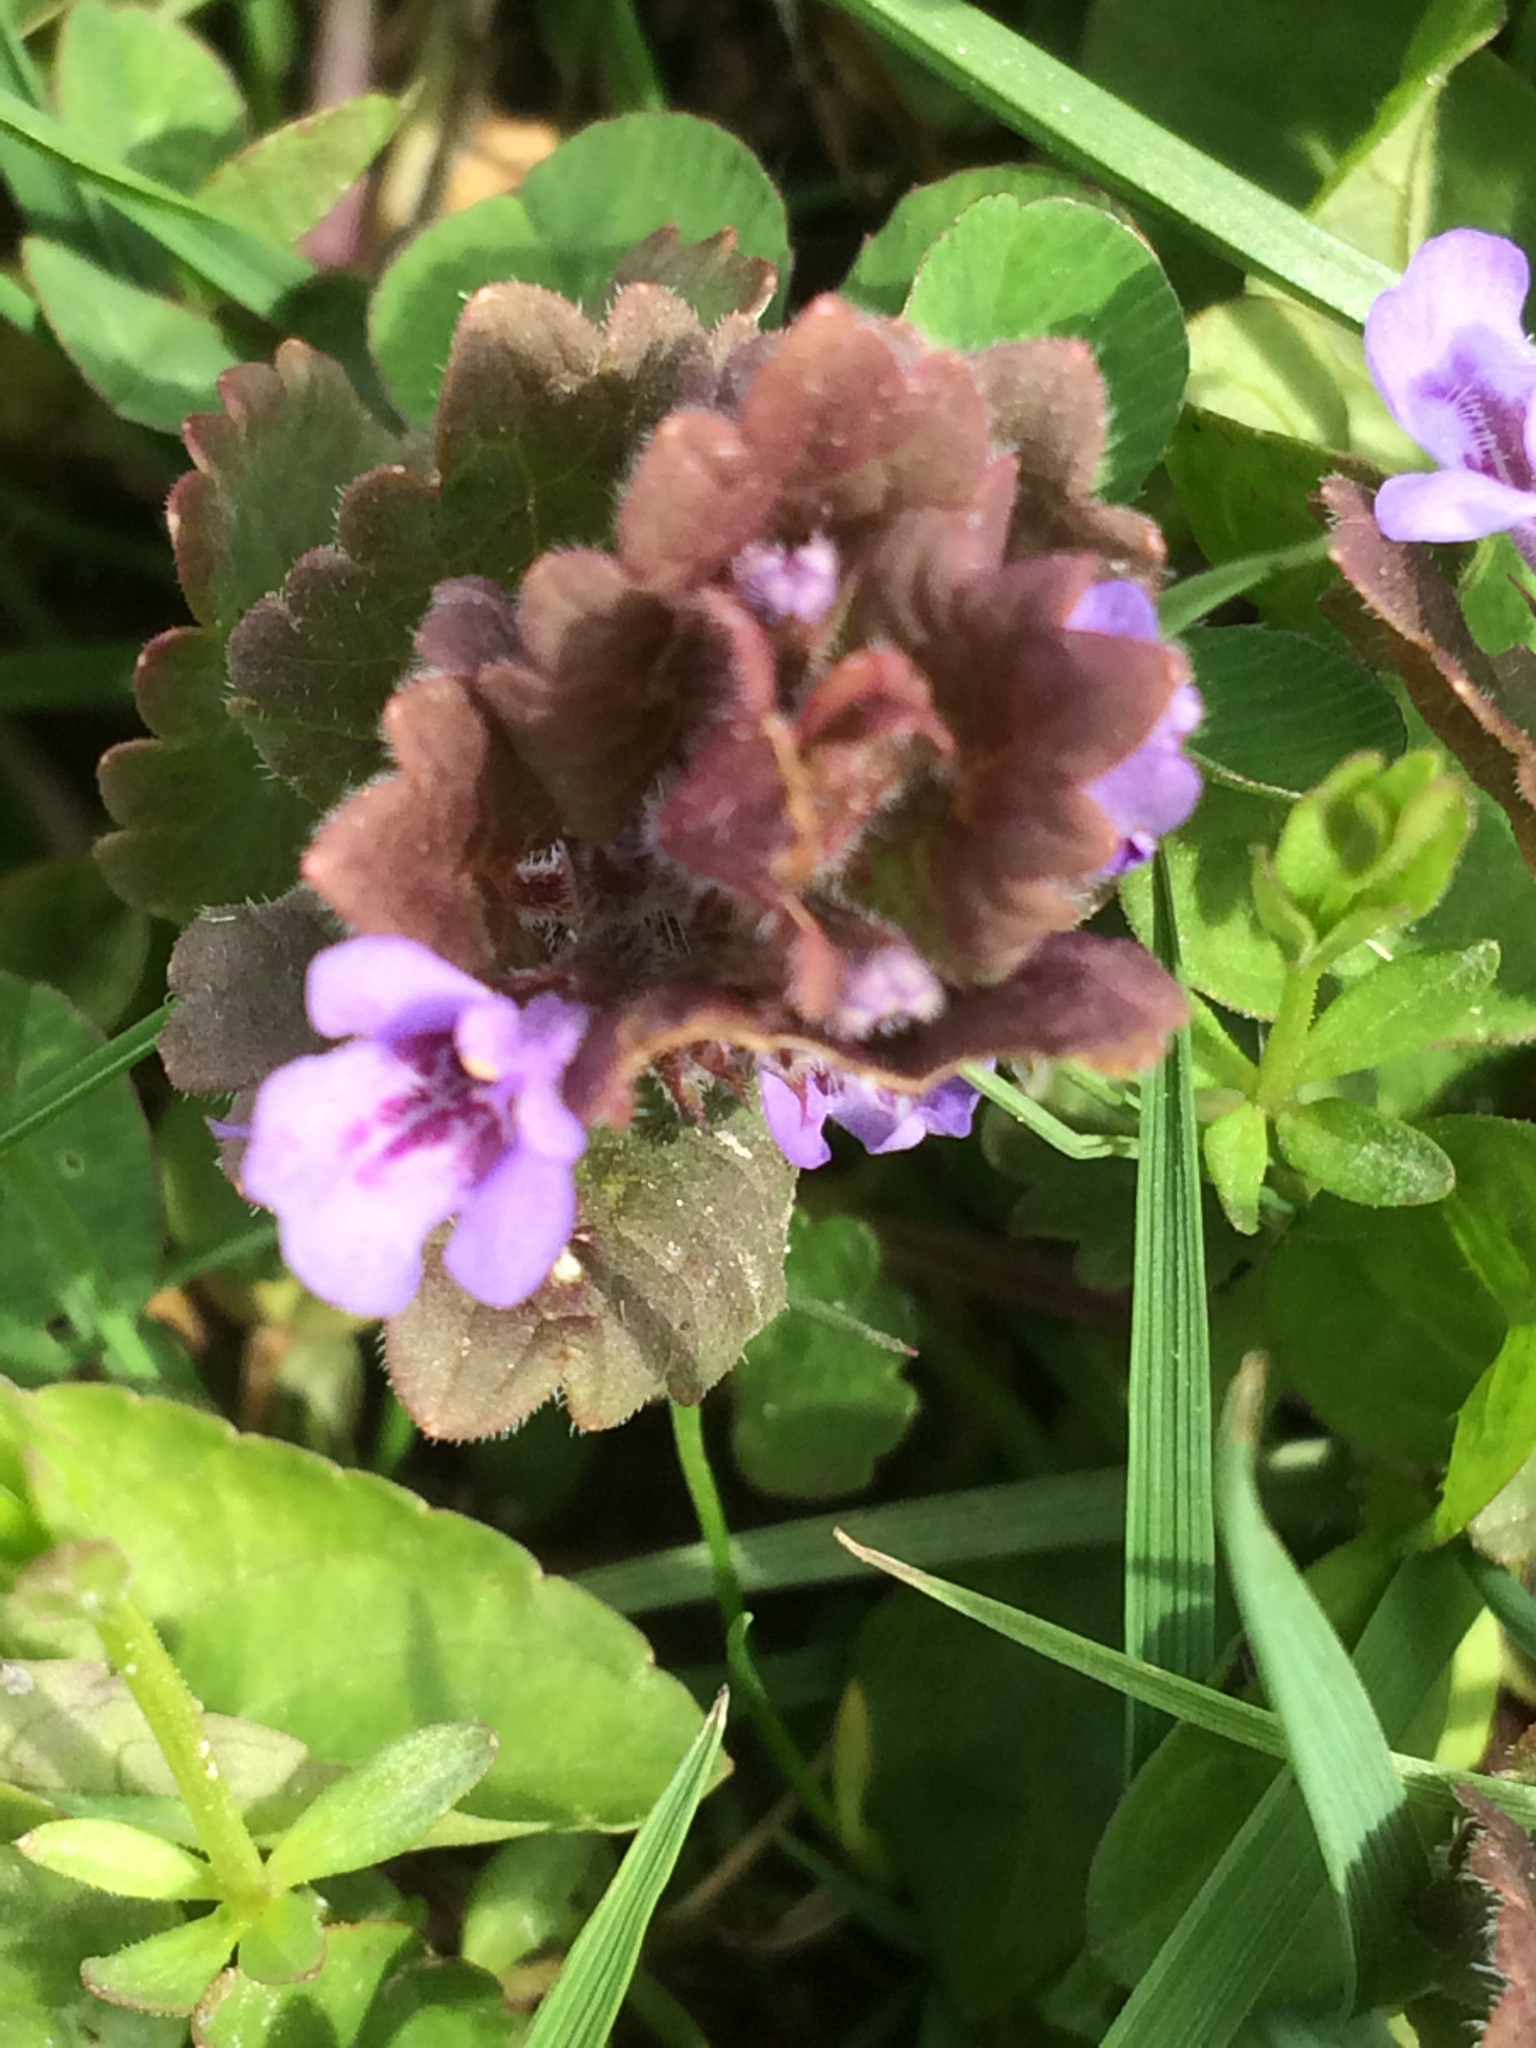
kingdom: Plantae
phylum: Tracheophyta
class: Magnoliopsida
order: Lamiales
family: Lamiaceae
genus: Glechoma
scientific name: Glechoma hederacea
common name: Ground ivy
